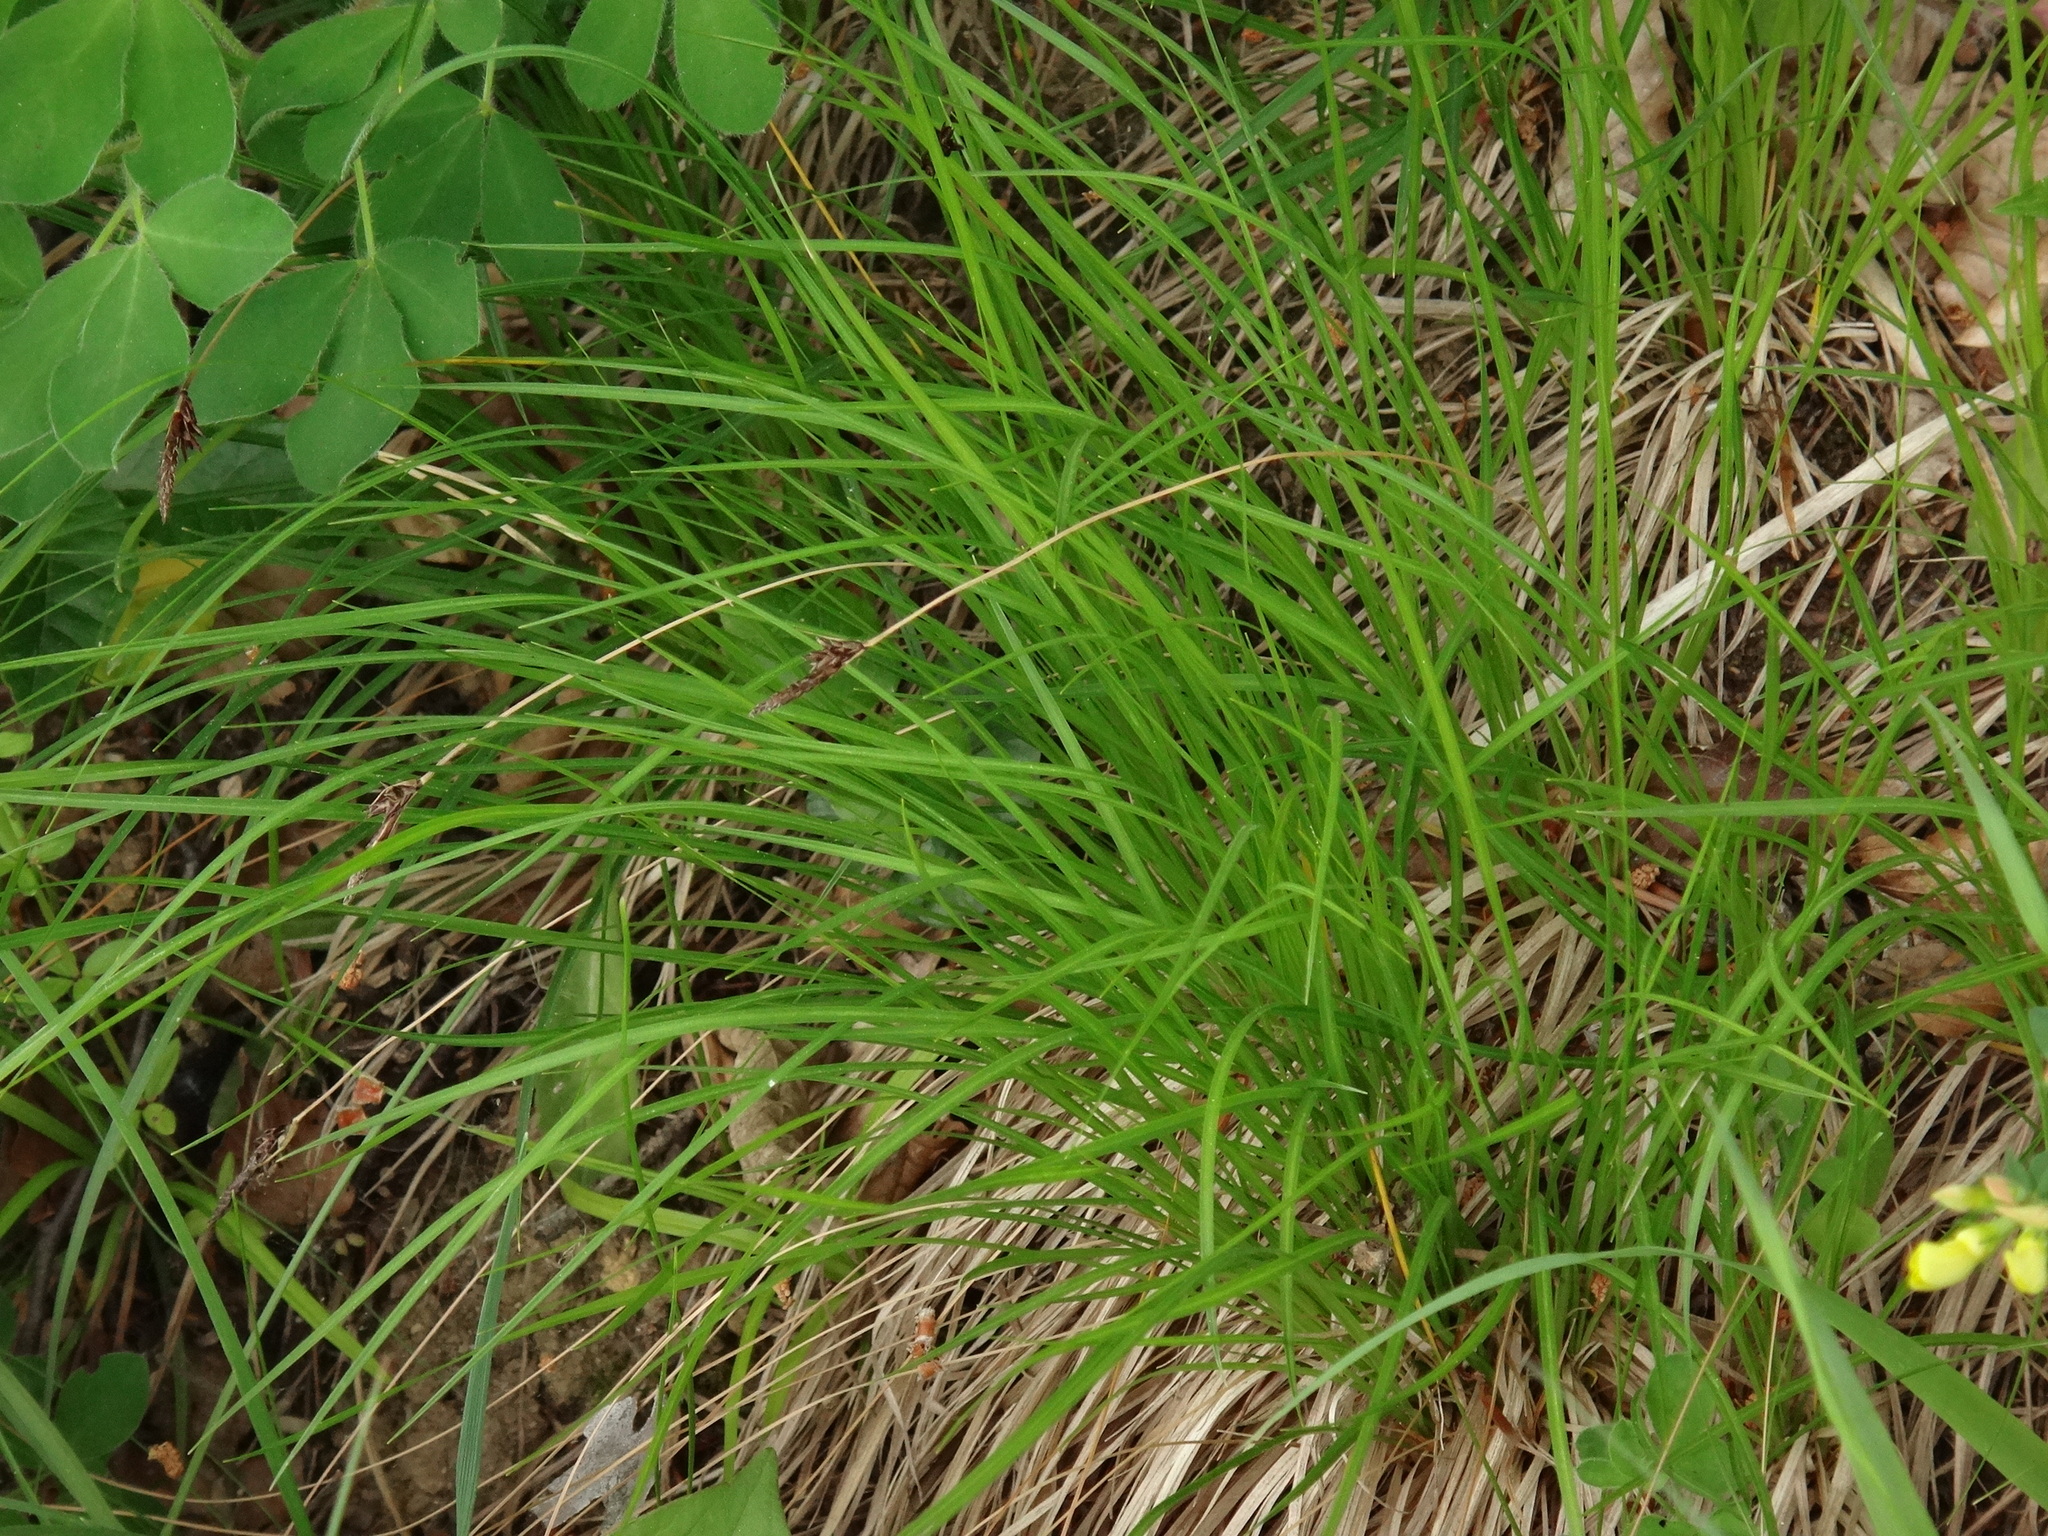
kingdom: Plantae
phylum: Tracheophyta
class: Liliopsida
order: Poales
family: Cyperaceae
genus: Carex
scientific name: Carex montana
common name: Soft-leaved sedge
